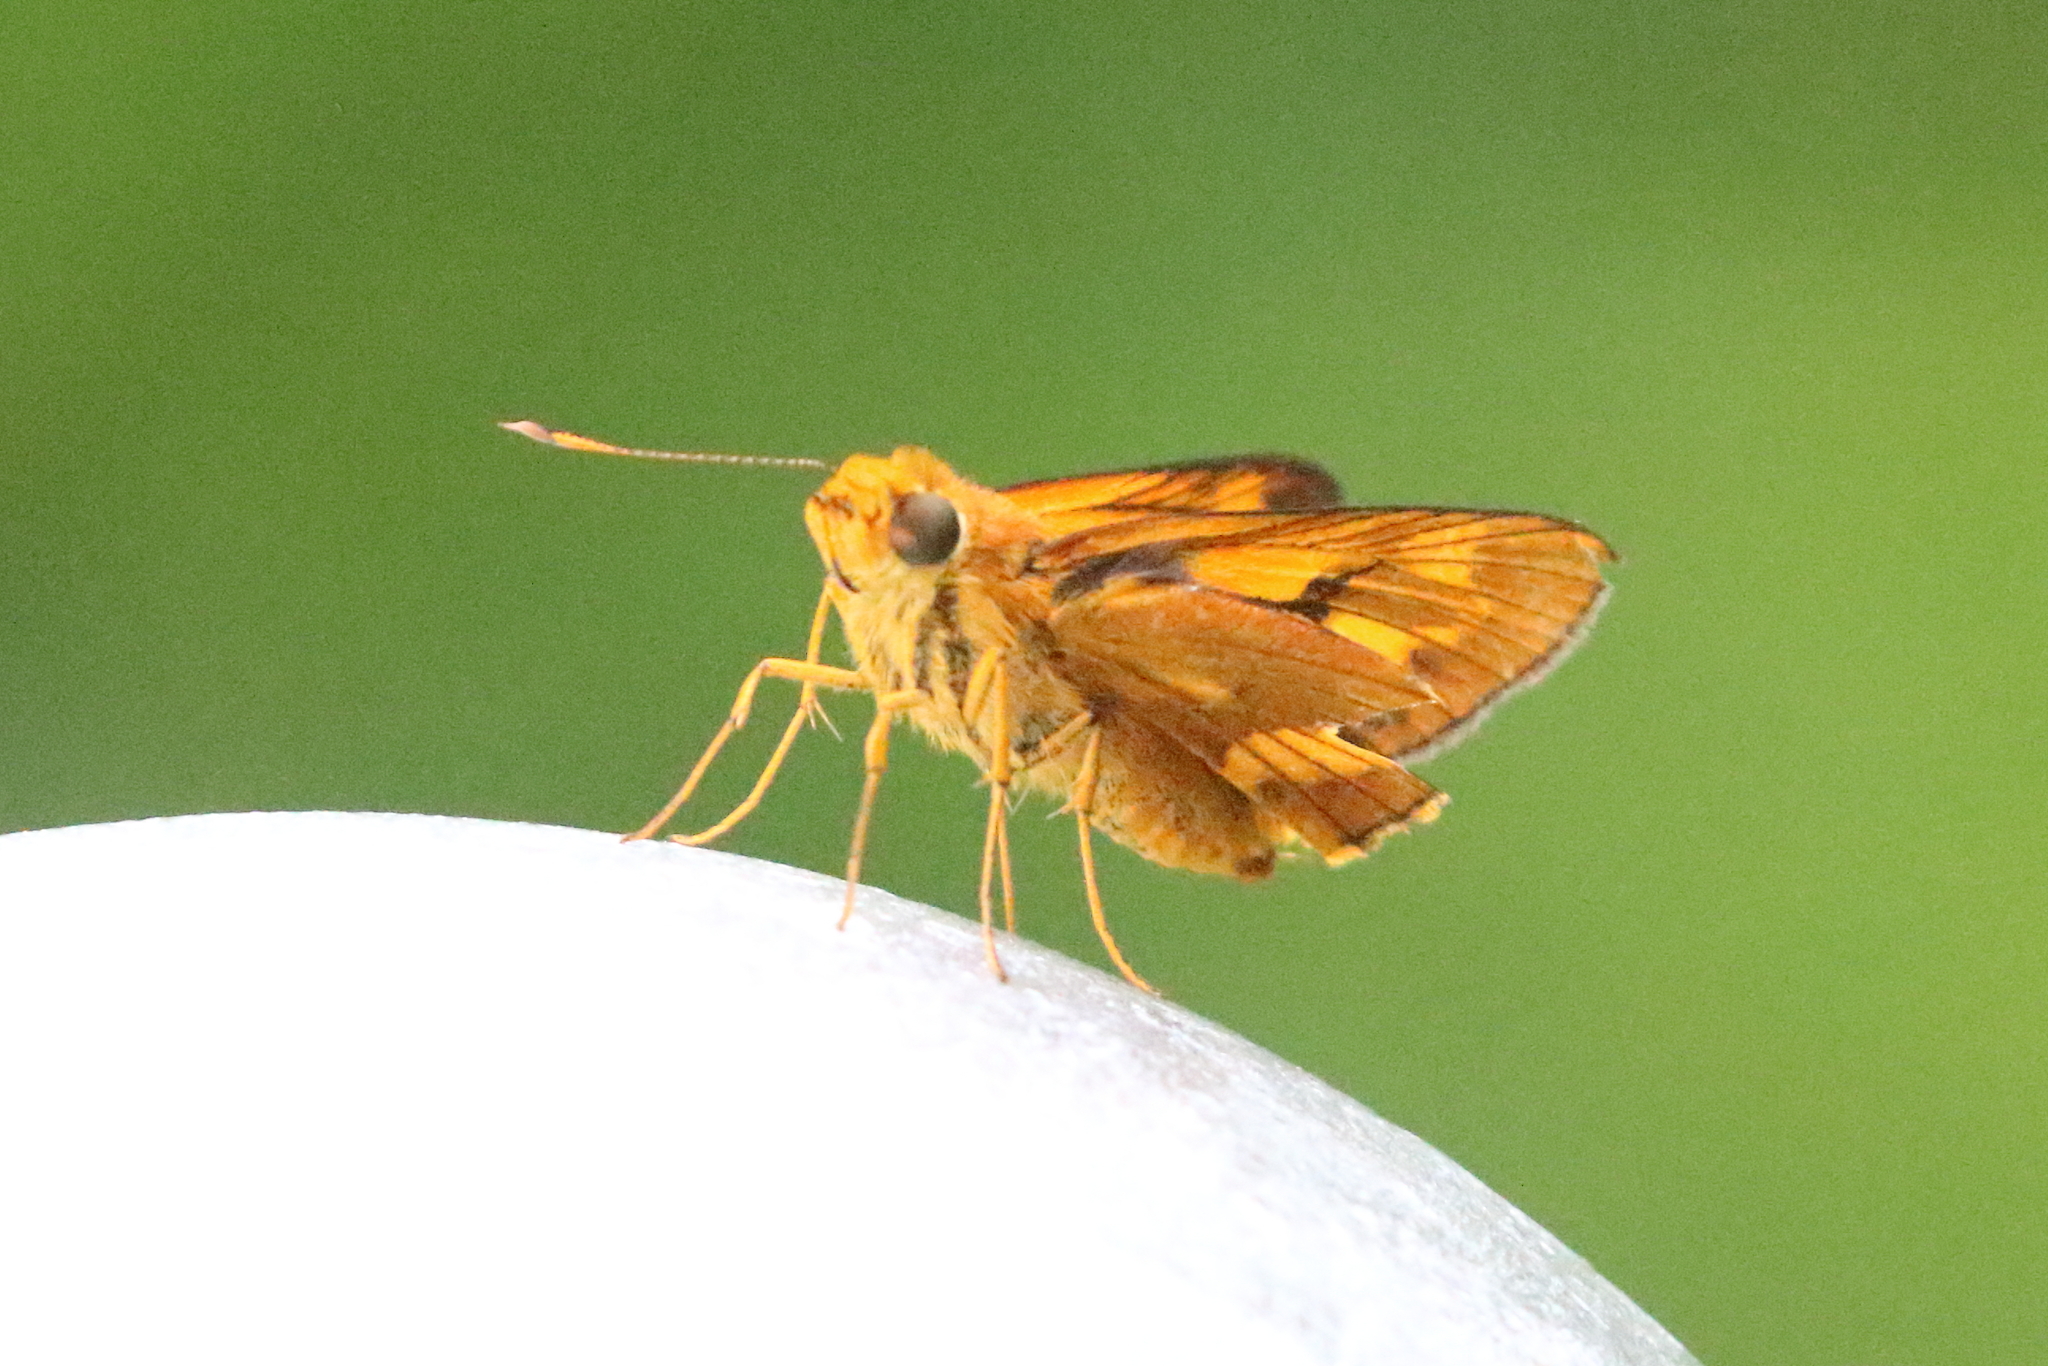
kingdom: Animalia
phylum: Arthropoda
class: Insecta
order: Lepidoptera
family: Hesperiidae
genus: Cephrenes
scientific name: Cephrenes augiades
